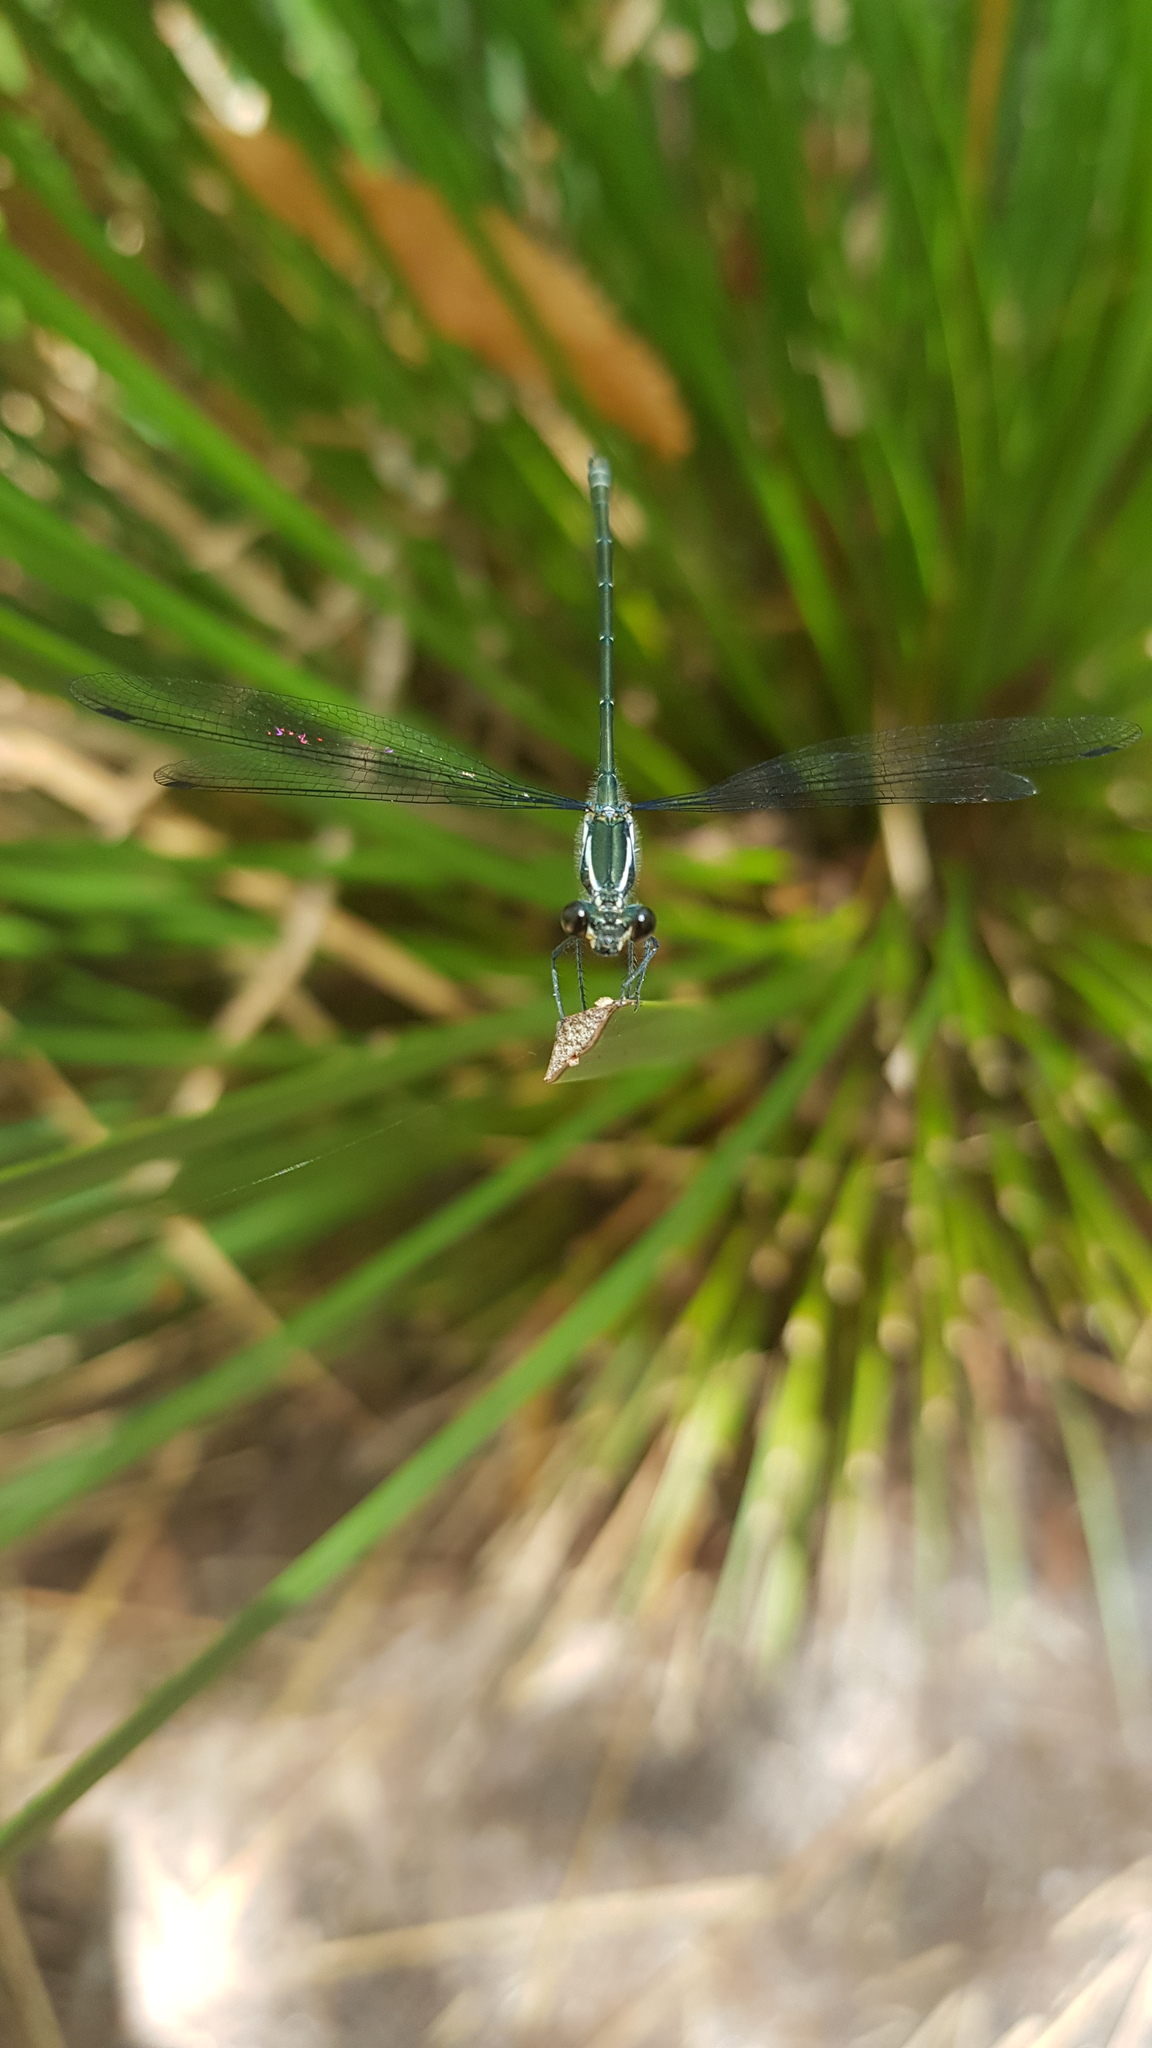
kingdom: Animalia
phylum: Arthropoda
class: Insecta
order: Odonata
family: Argiolestidae
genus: Austroargiolestes
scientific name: Austroargiolestes icteromelas
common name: Common flatwing
